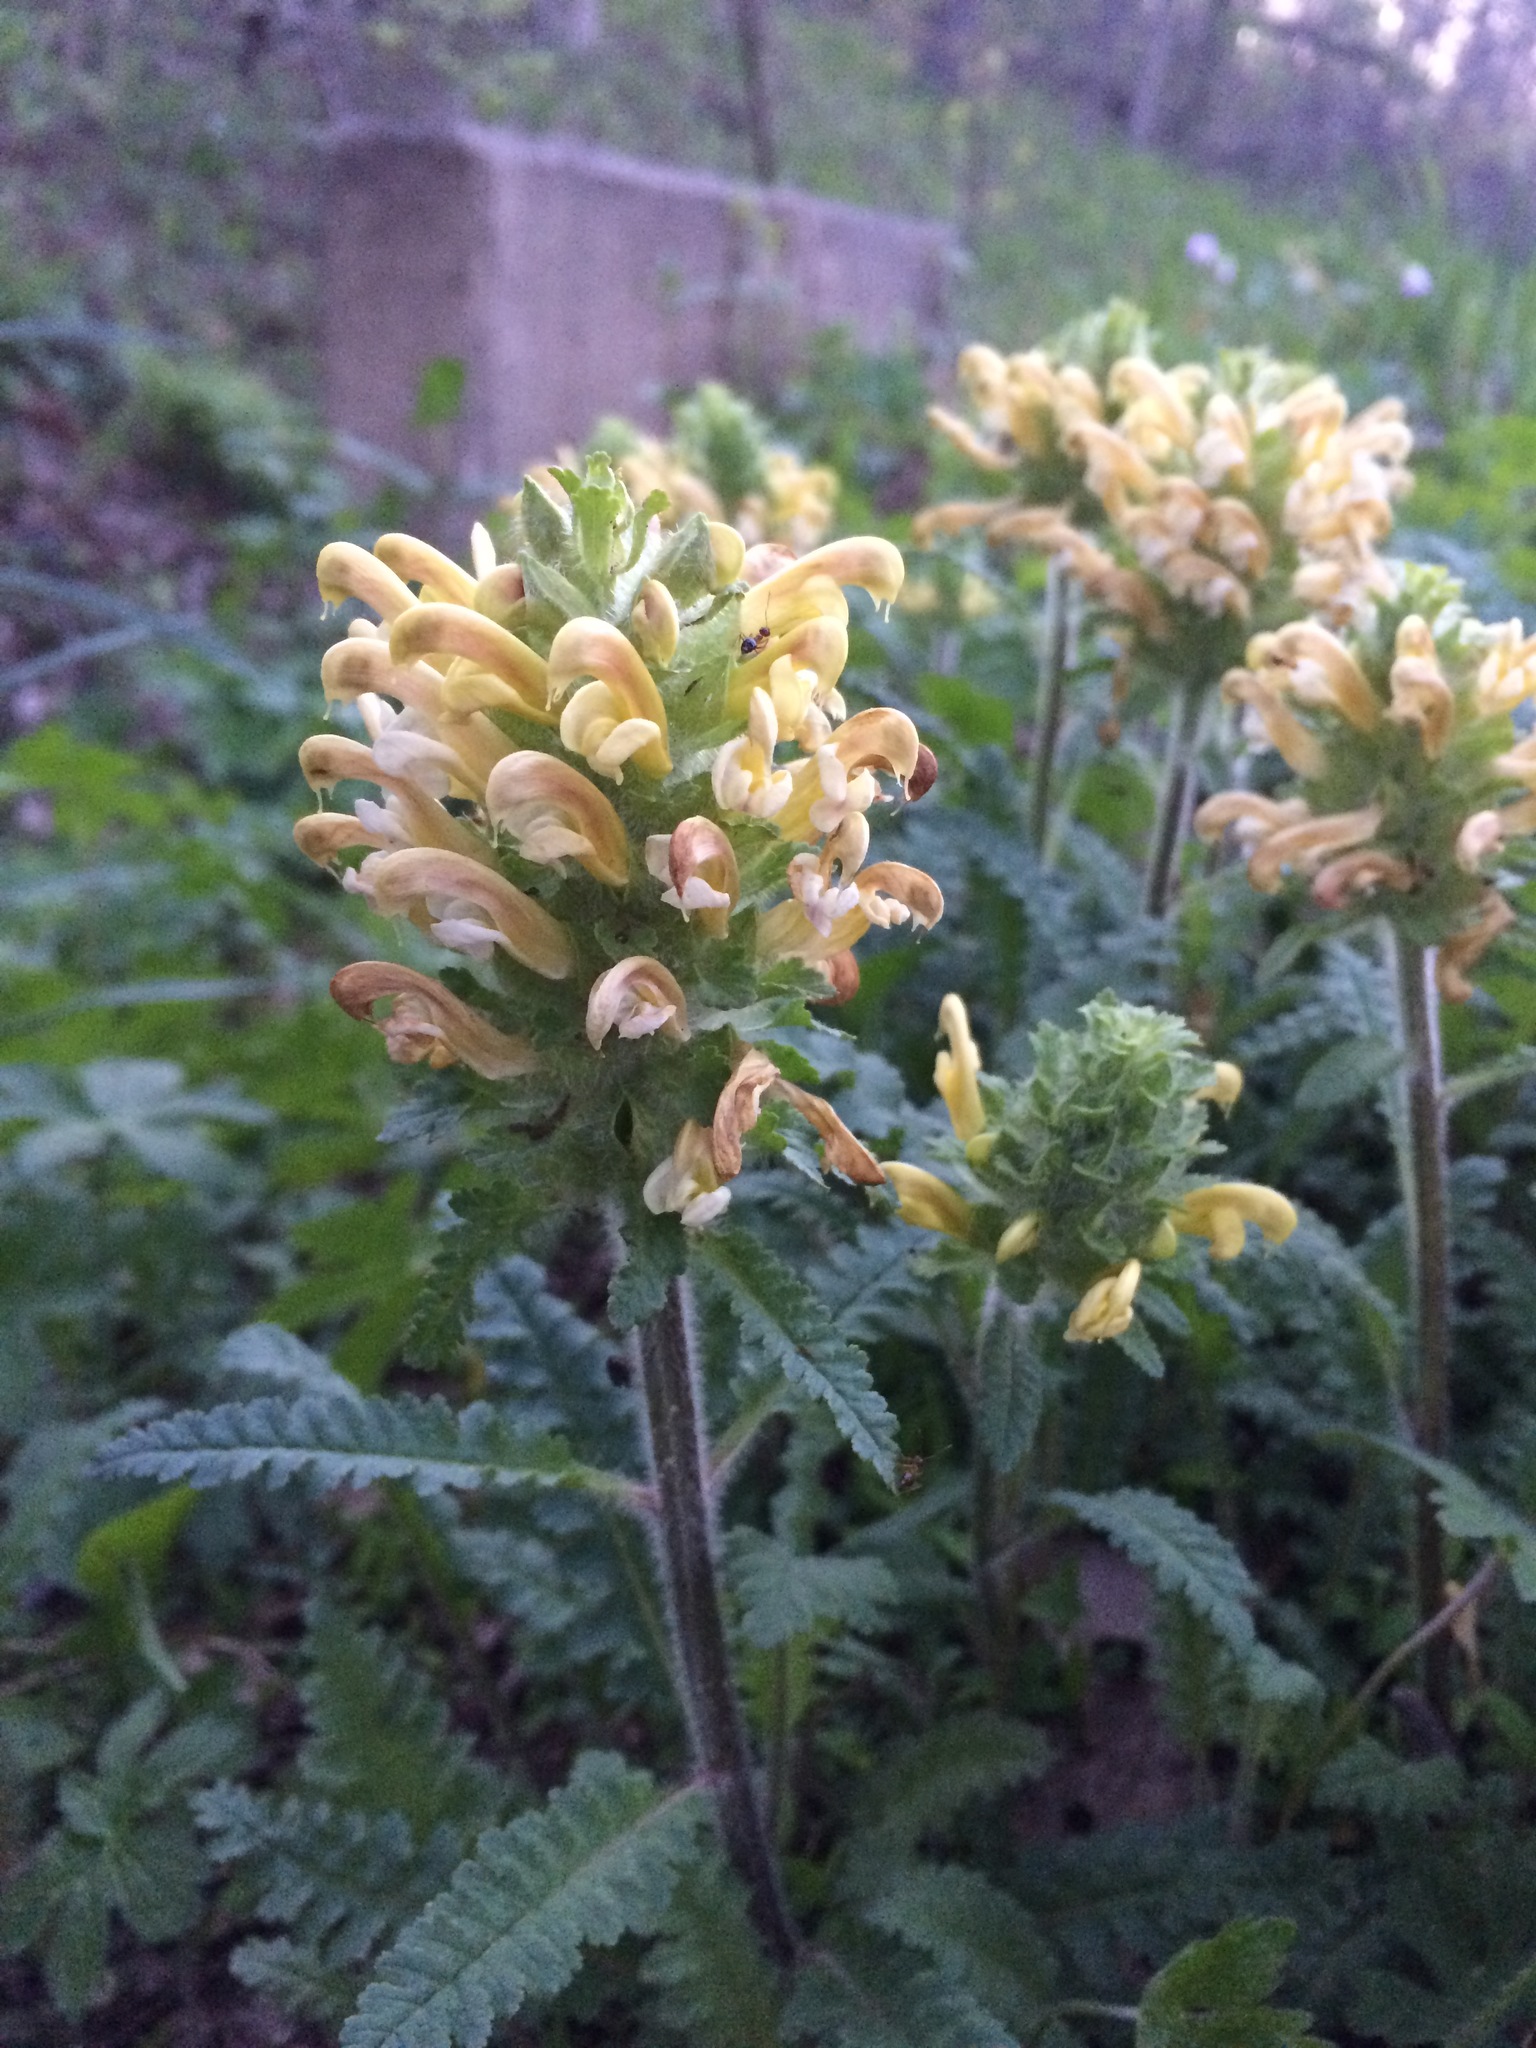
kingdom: Plantae
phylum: Tracheophyta
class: Magnoliopsida
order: Lamiales
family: Orobanchaceae
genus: Pedicularis
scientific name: Pedicularis canadensis
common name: Early lousewort
